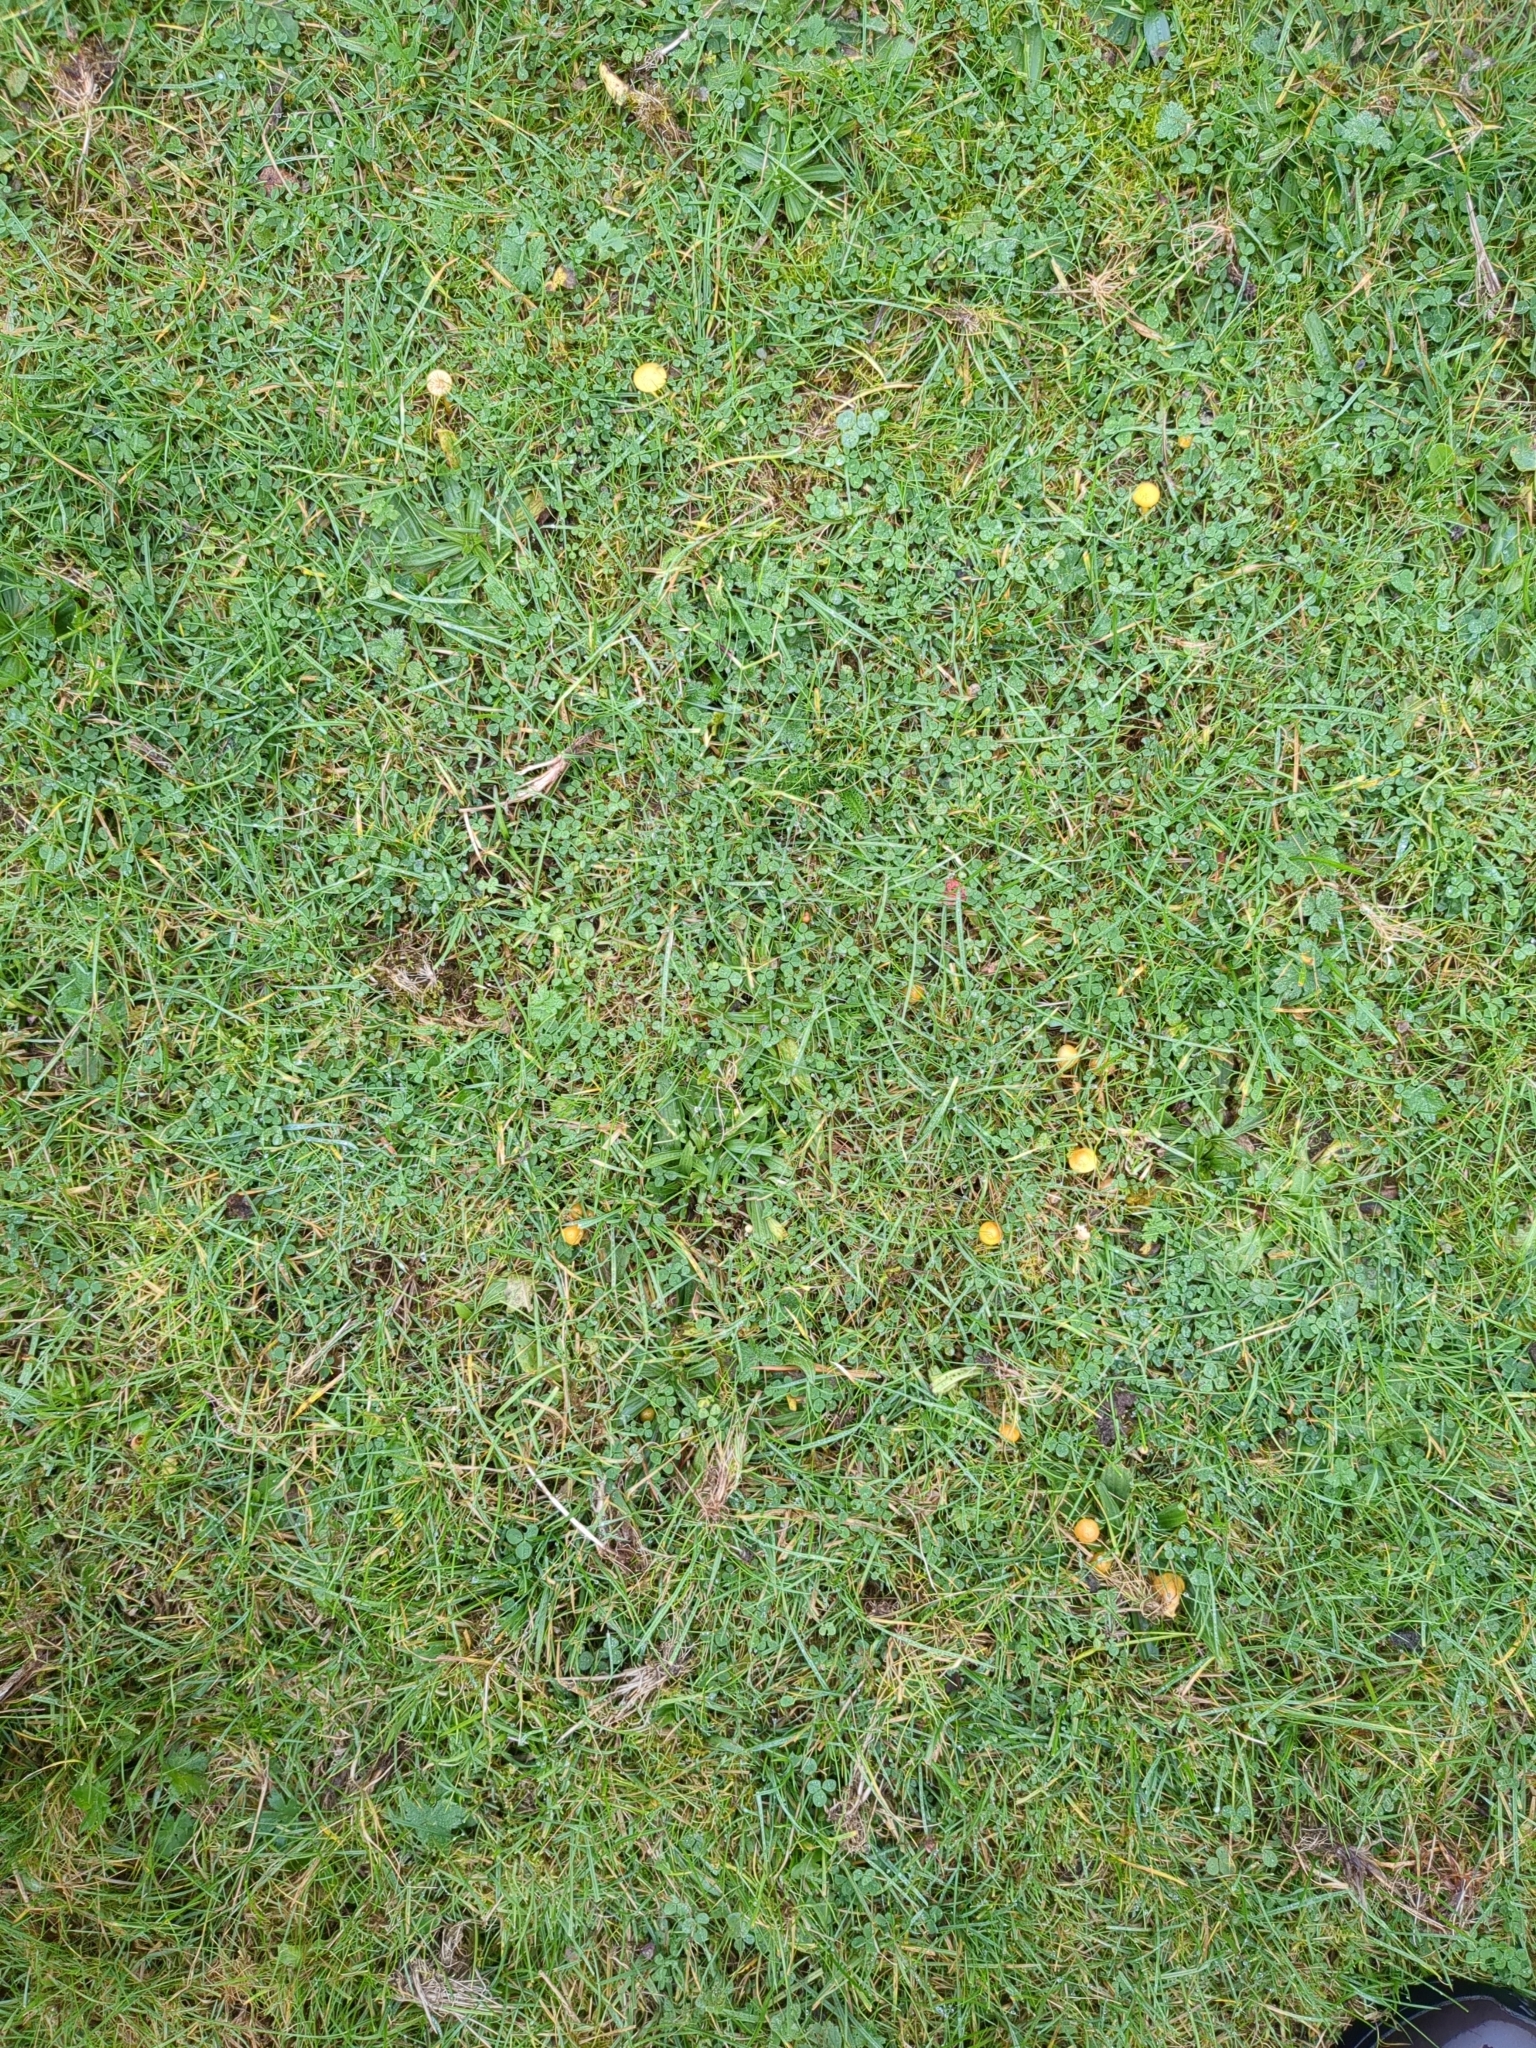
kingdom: Fungi
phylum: Basidiomycota
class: Agaricomycetes
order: Agaricales
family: Hygrophoraceae
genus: Gliophorus
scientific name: Gliophorus psittacinus
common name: Parrot wax-cap
